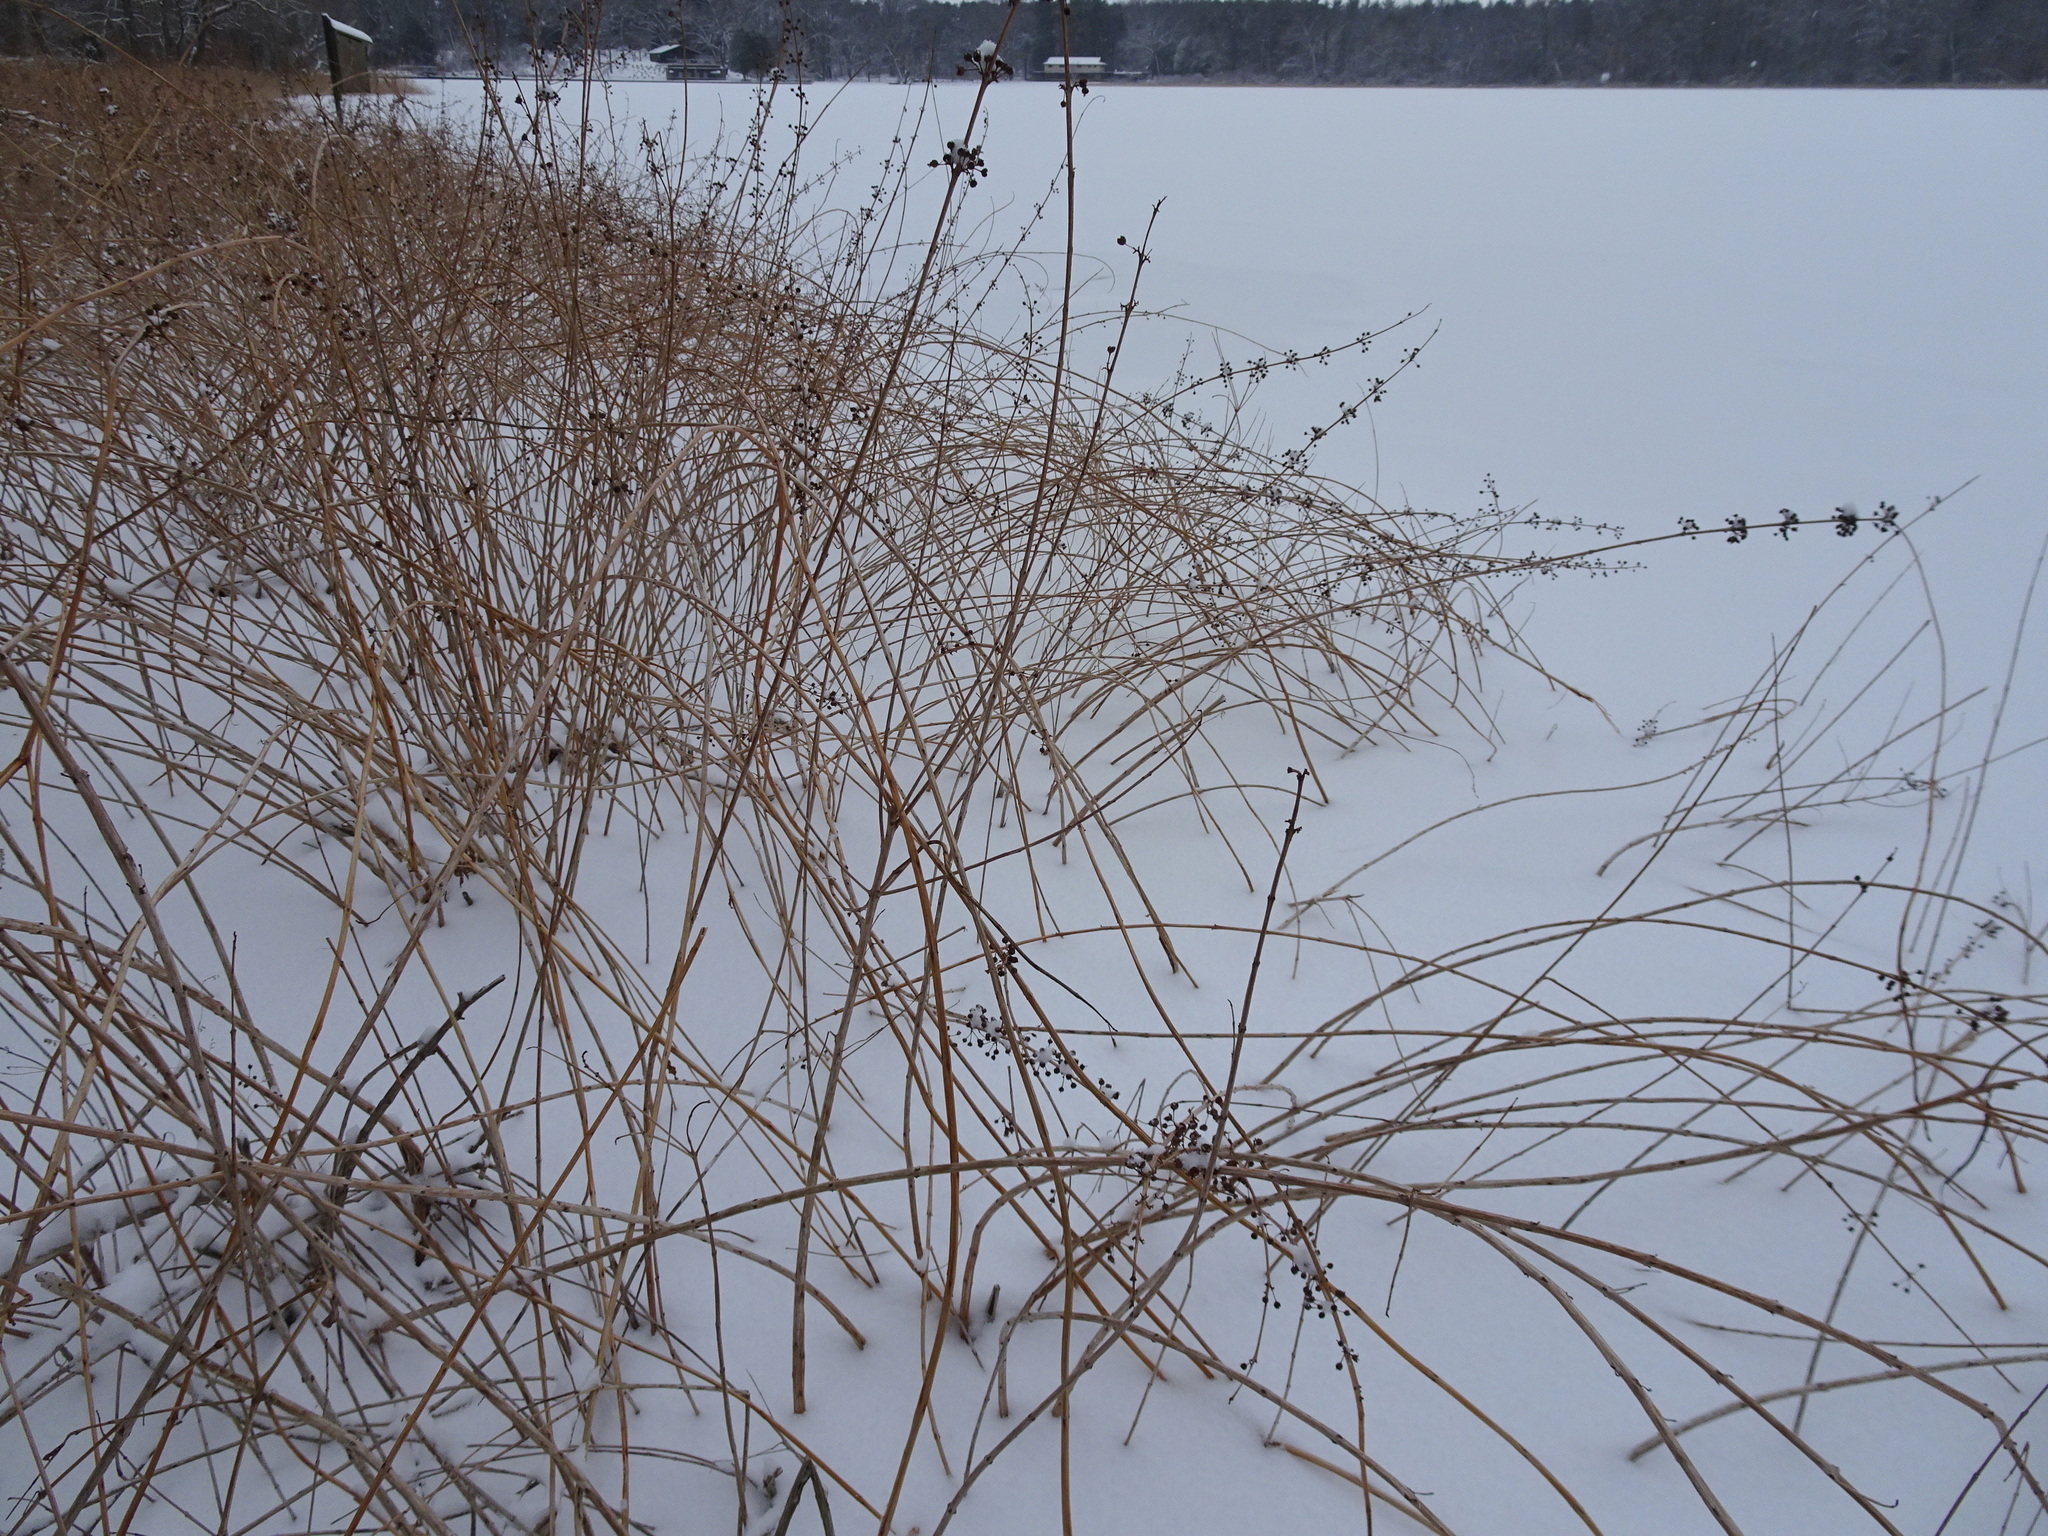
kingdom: Plantae
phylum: Tracheophyta
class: Magnoliopsida
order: Myrtales
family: Lythraceae
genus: Decodon
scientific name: Decodon verticillatus
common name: Hairy swamp loosestrife
